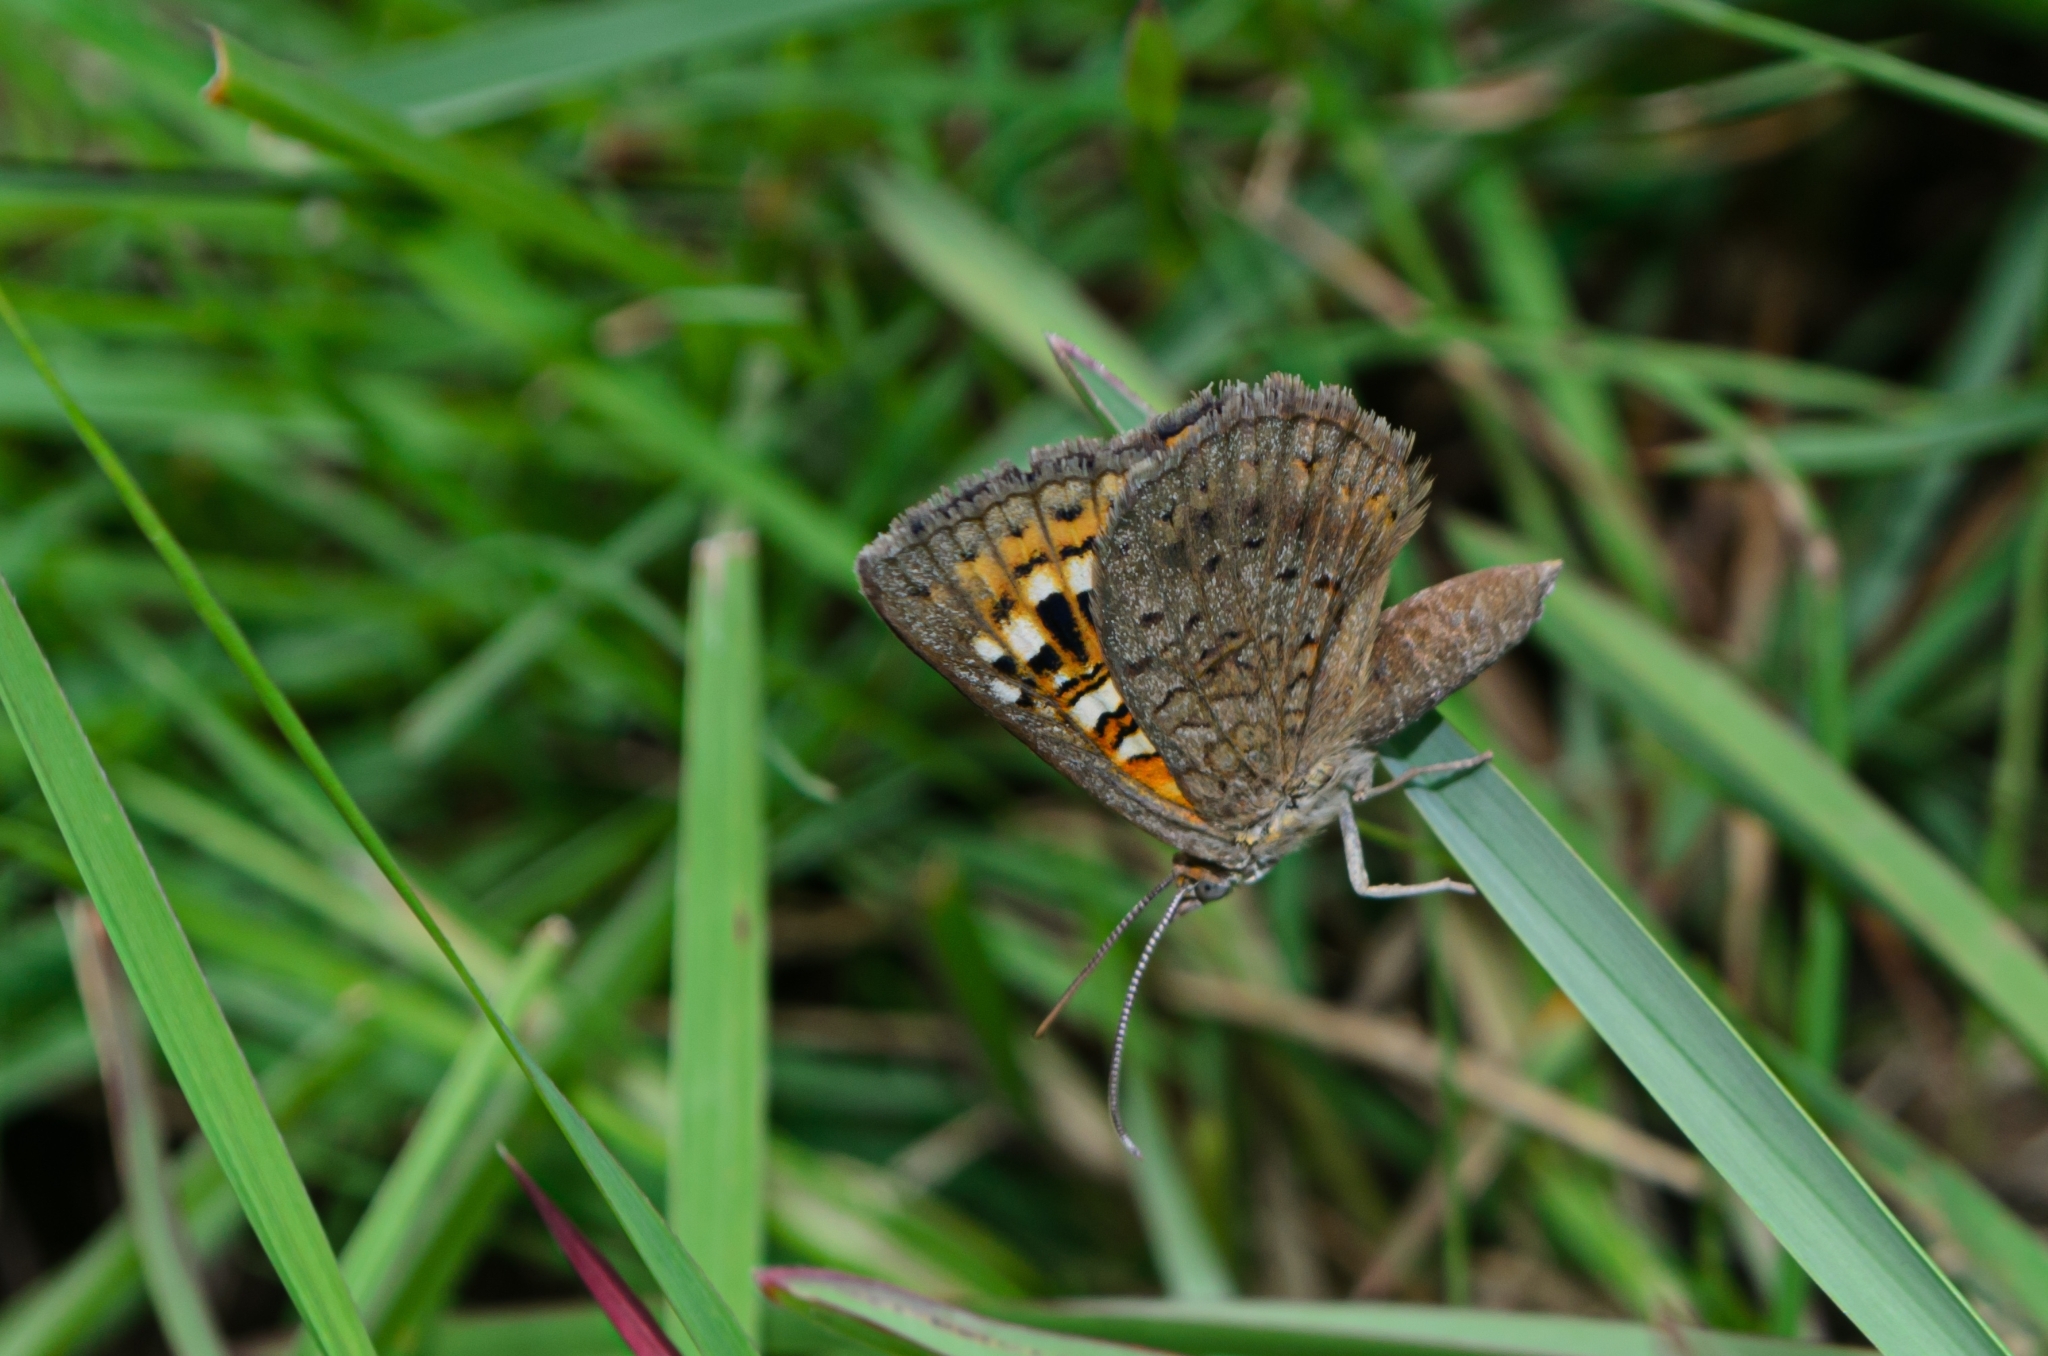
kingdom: Animalia
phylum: Arthropoda
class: Insecta
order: Lepidoptera
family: Lycaenidae
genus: Aricoris
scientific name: Aricoris arenarum
